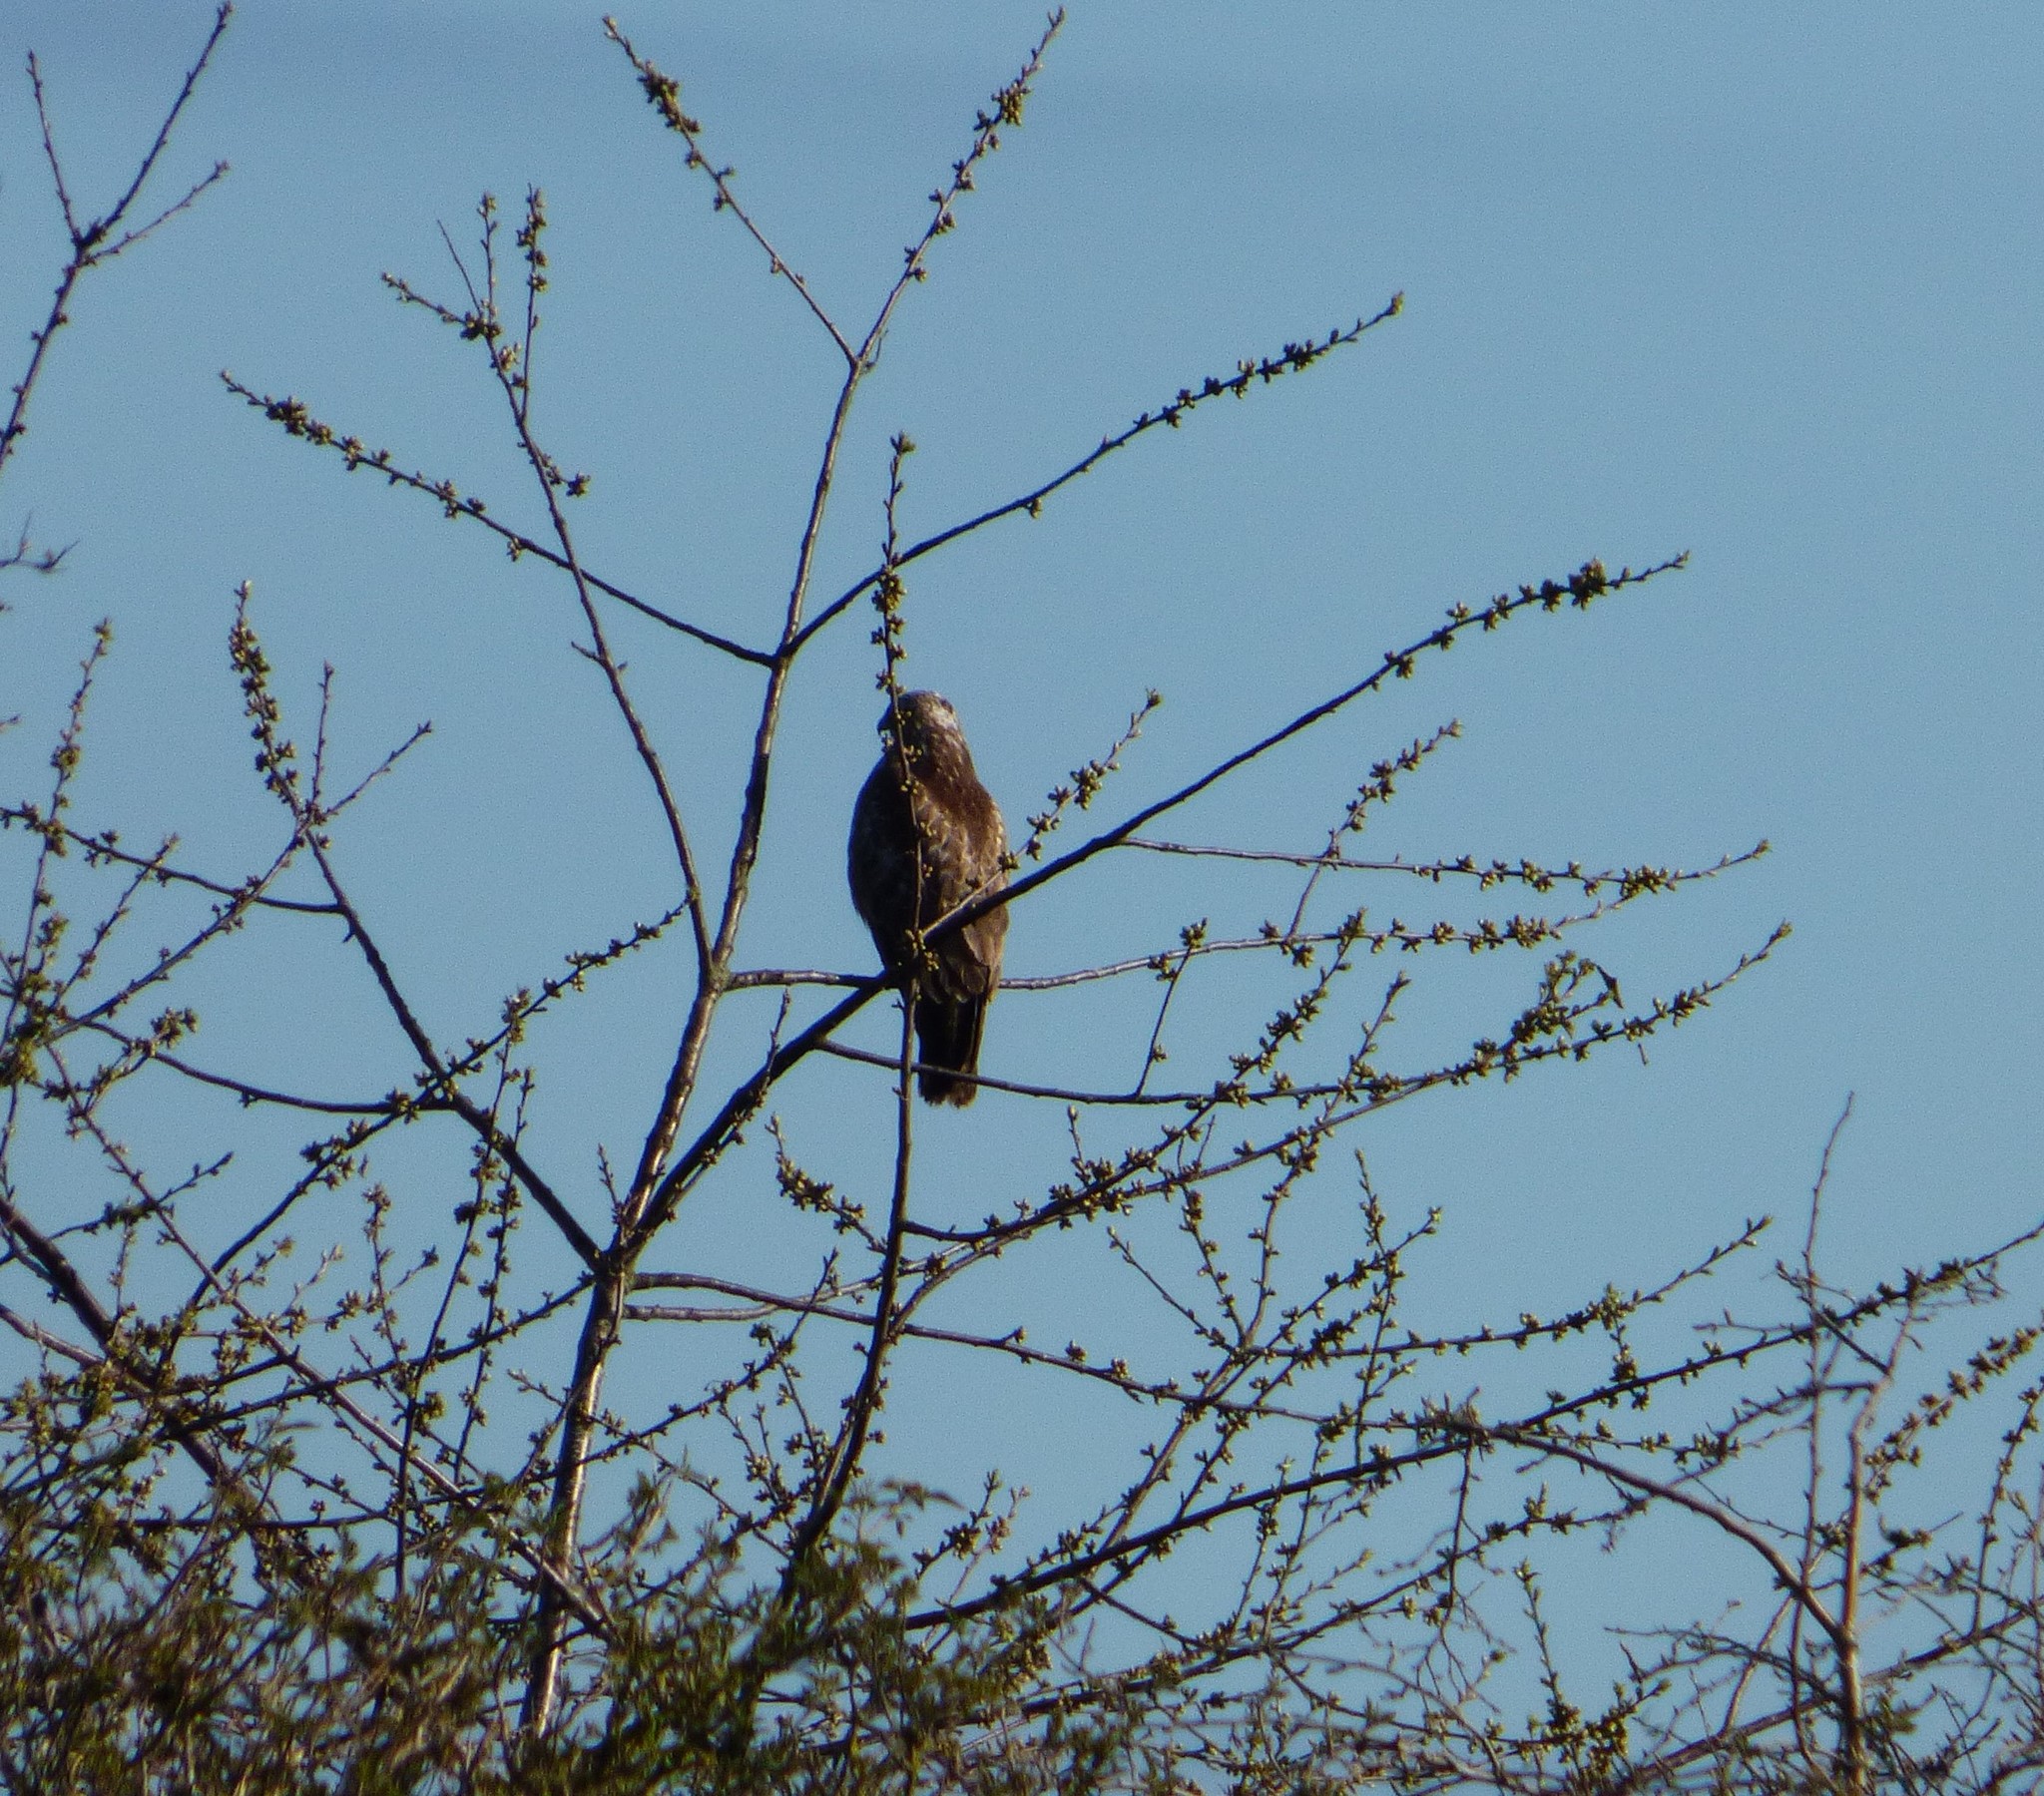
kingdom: Animalia
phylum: Chordata
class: Aves
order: Accipitriformes
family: Accipitridae
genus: Buteo
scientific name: Buteo buteo
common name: Common buzzard
